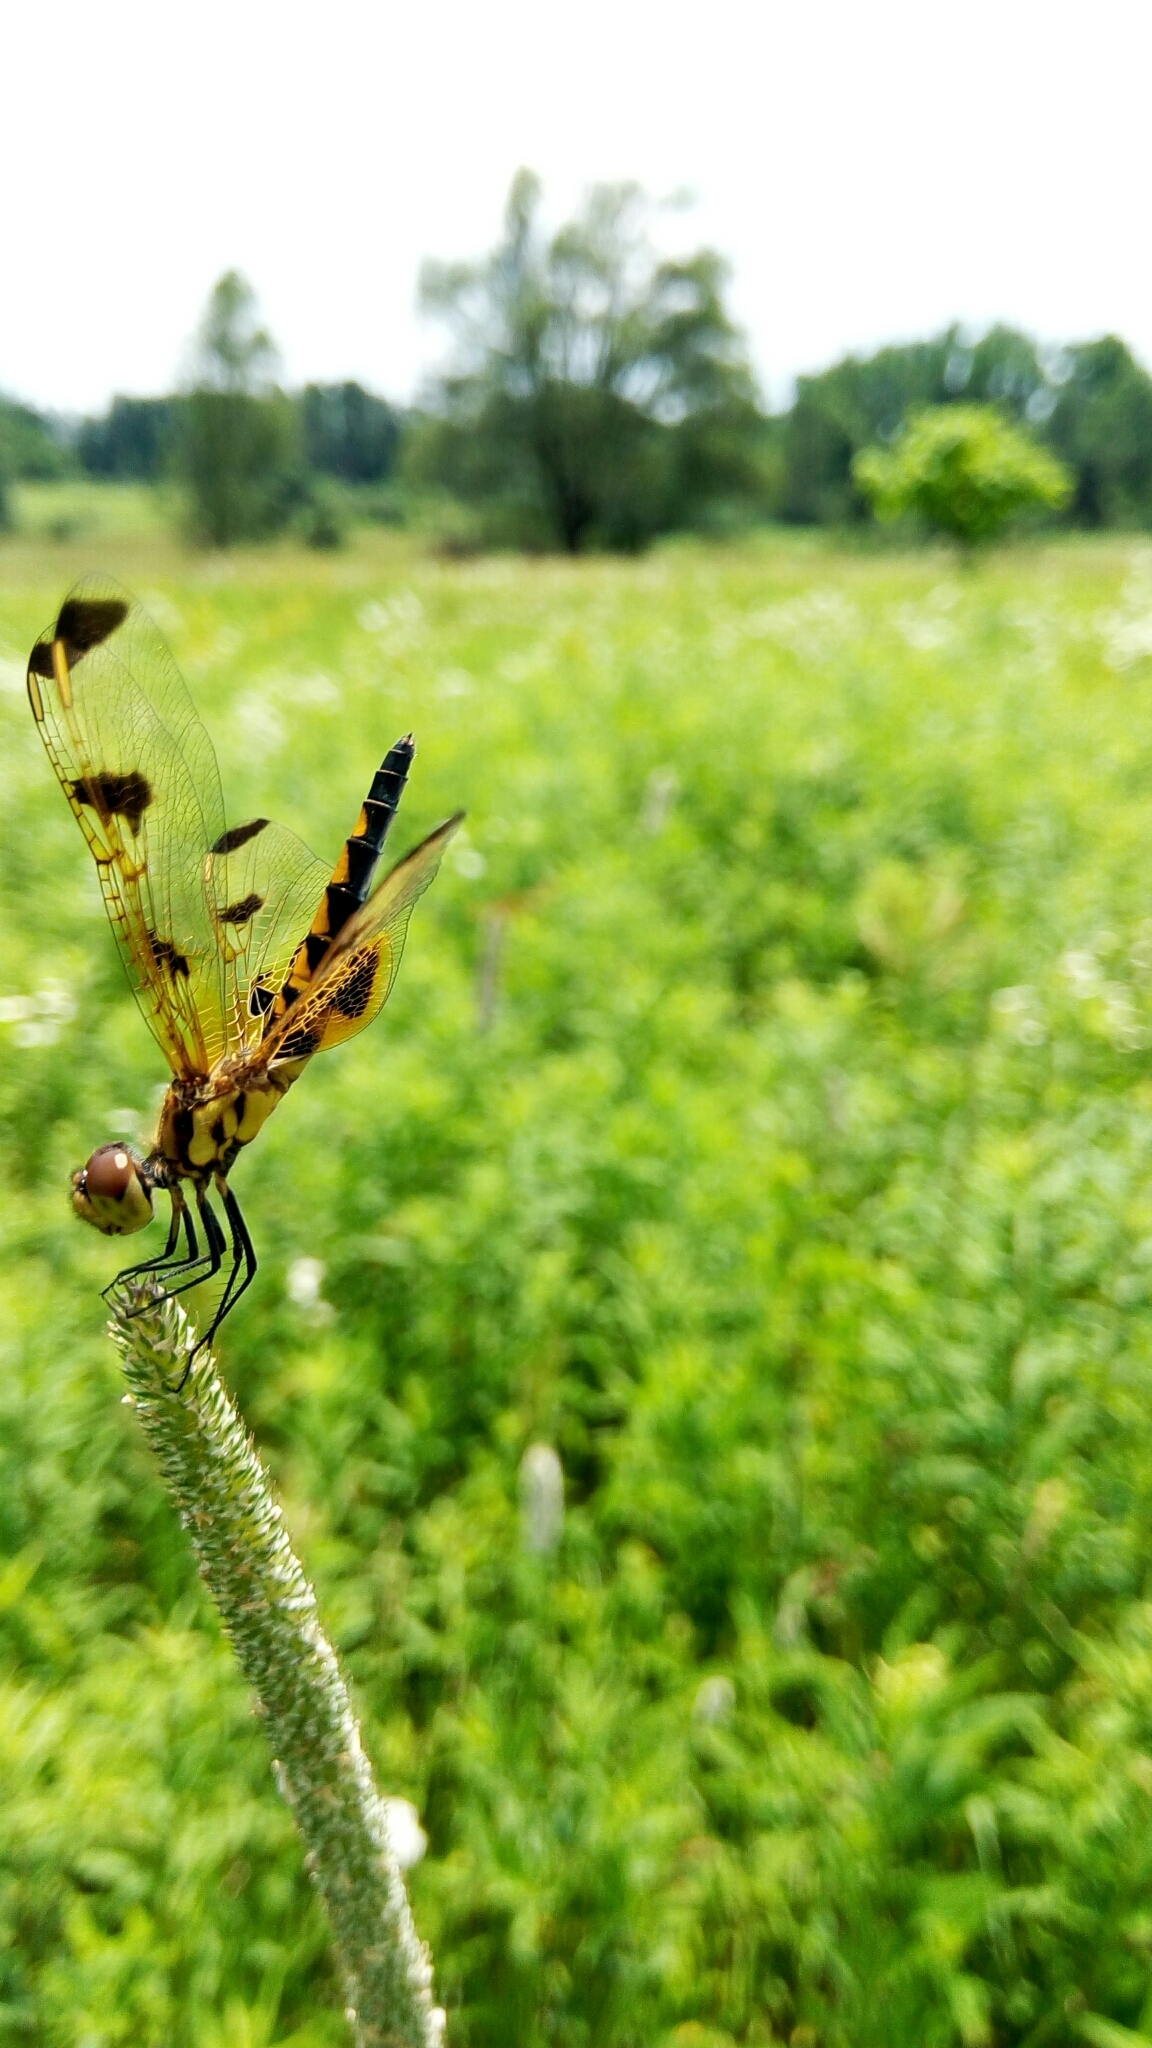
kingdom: Animalia
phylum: Arthropoda
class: Insecta
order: Odonata
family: Libellulidae
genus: Celithemis
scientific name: Celithemis eponina
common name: Halloween pennant
